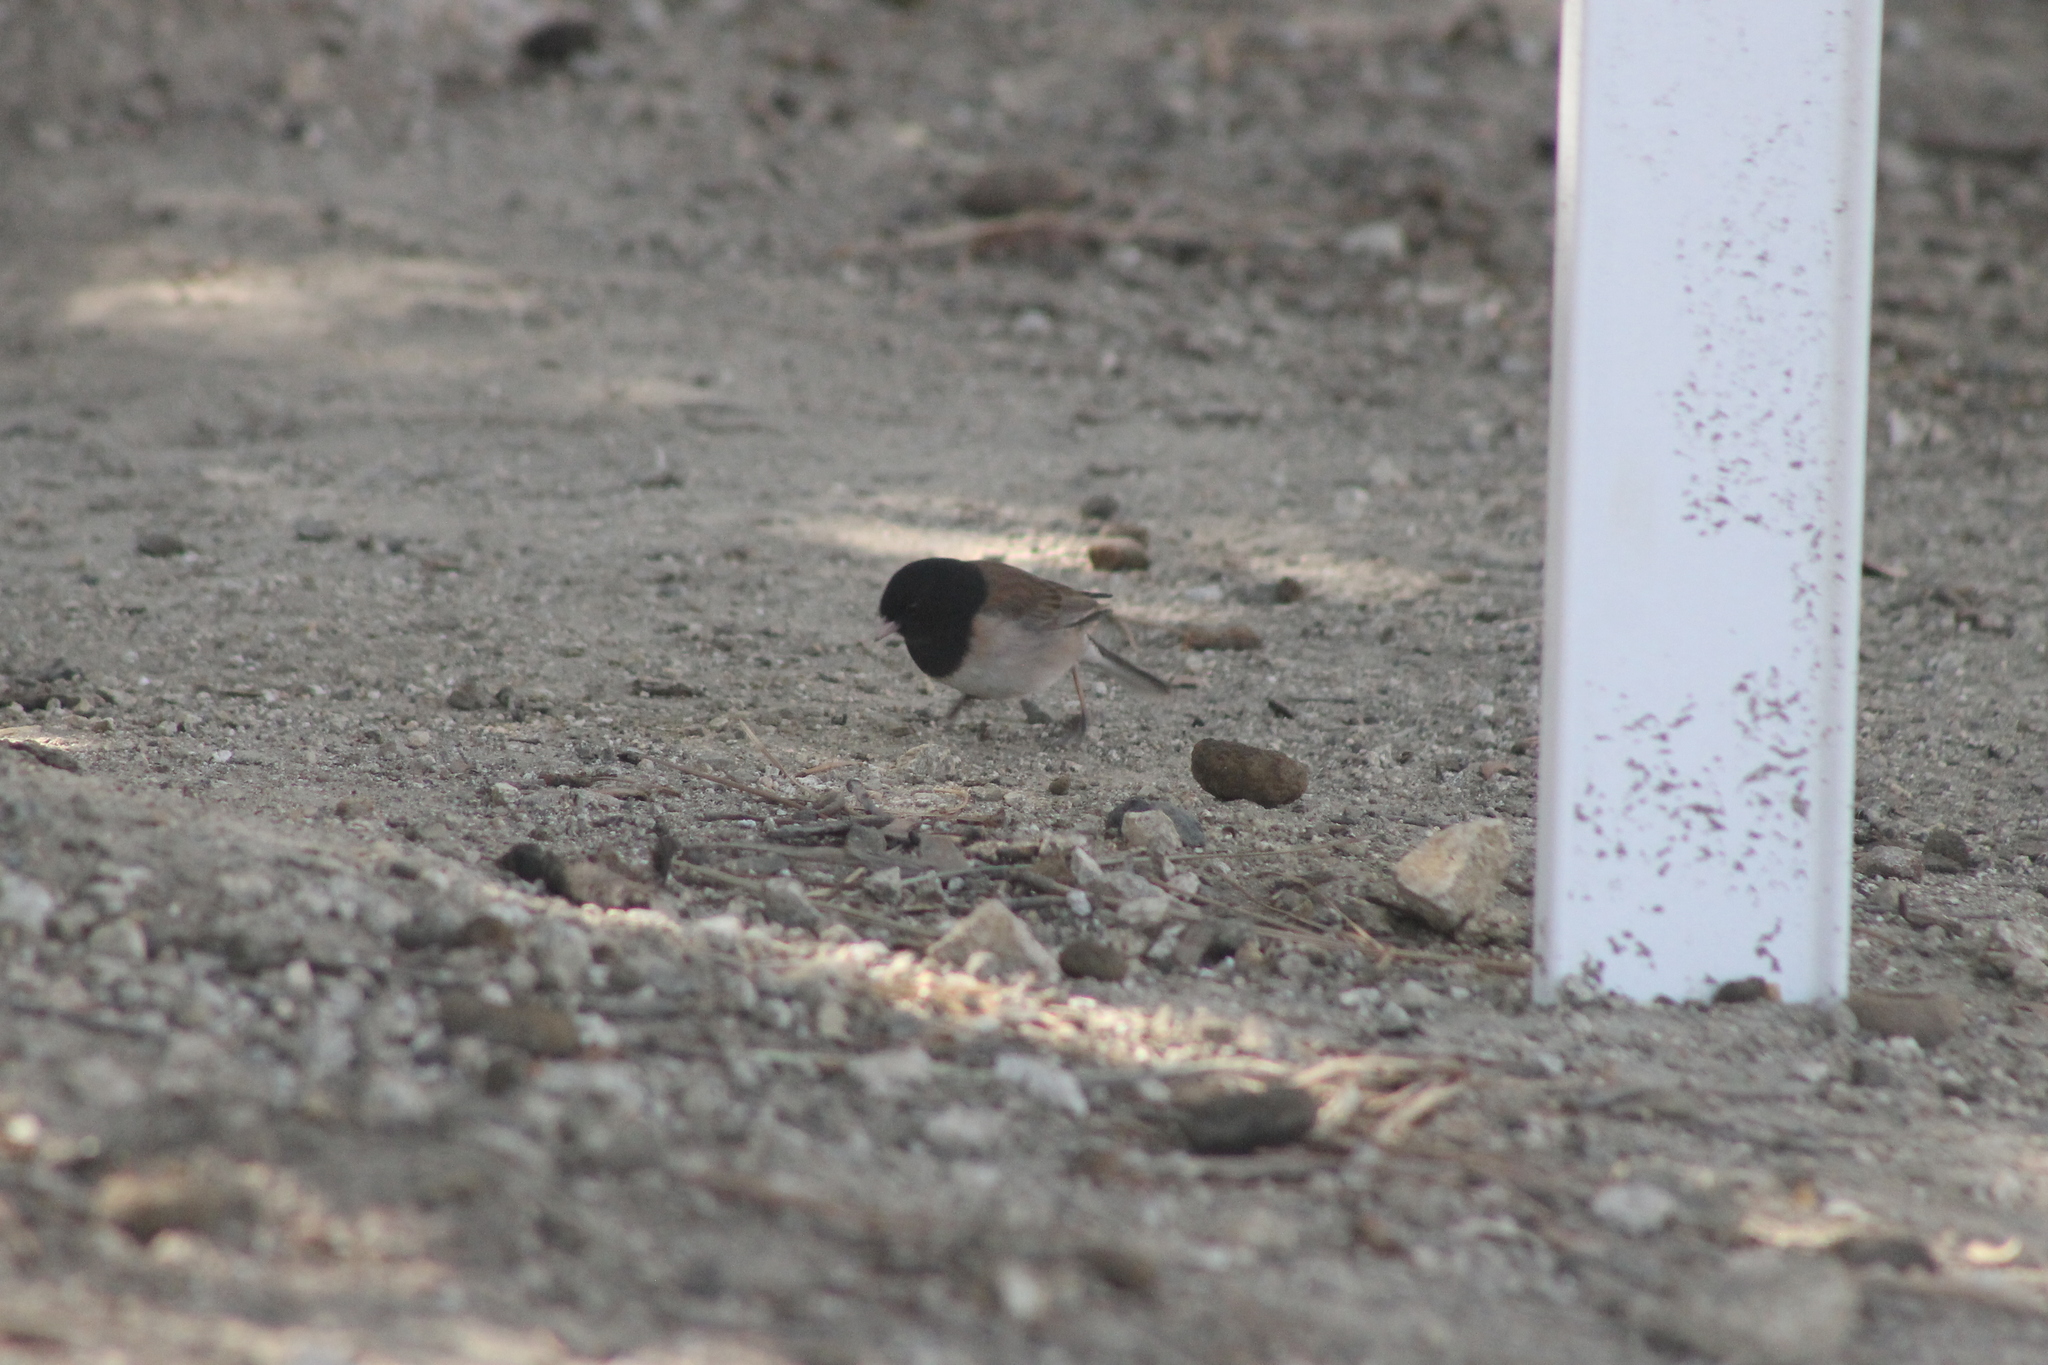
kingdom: Animalia
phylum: Chordata
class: Aves
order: Passeriformes
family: Passerellidae
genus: Junco
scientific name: Junco hyemalis
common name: Dark-eyed junco
